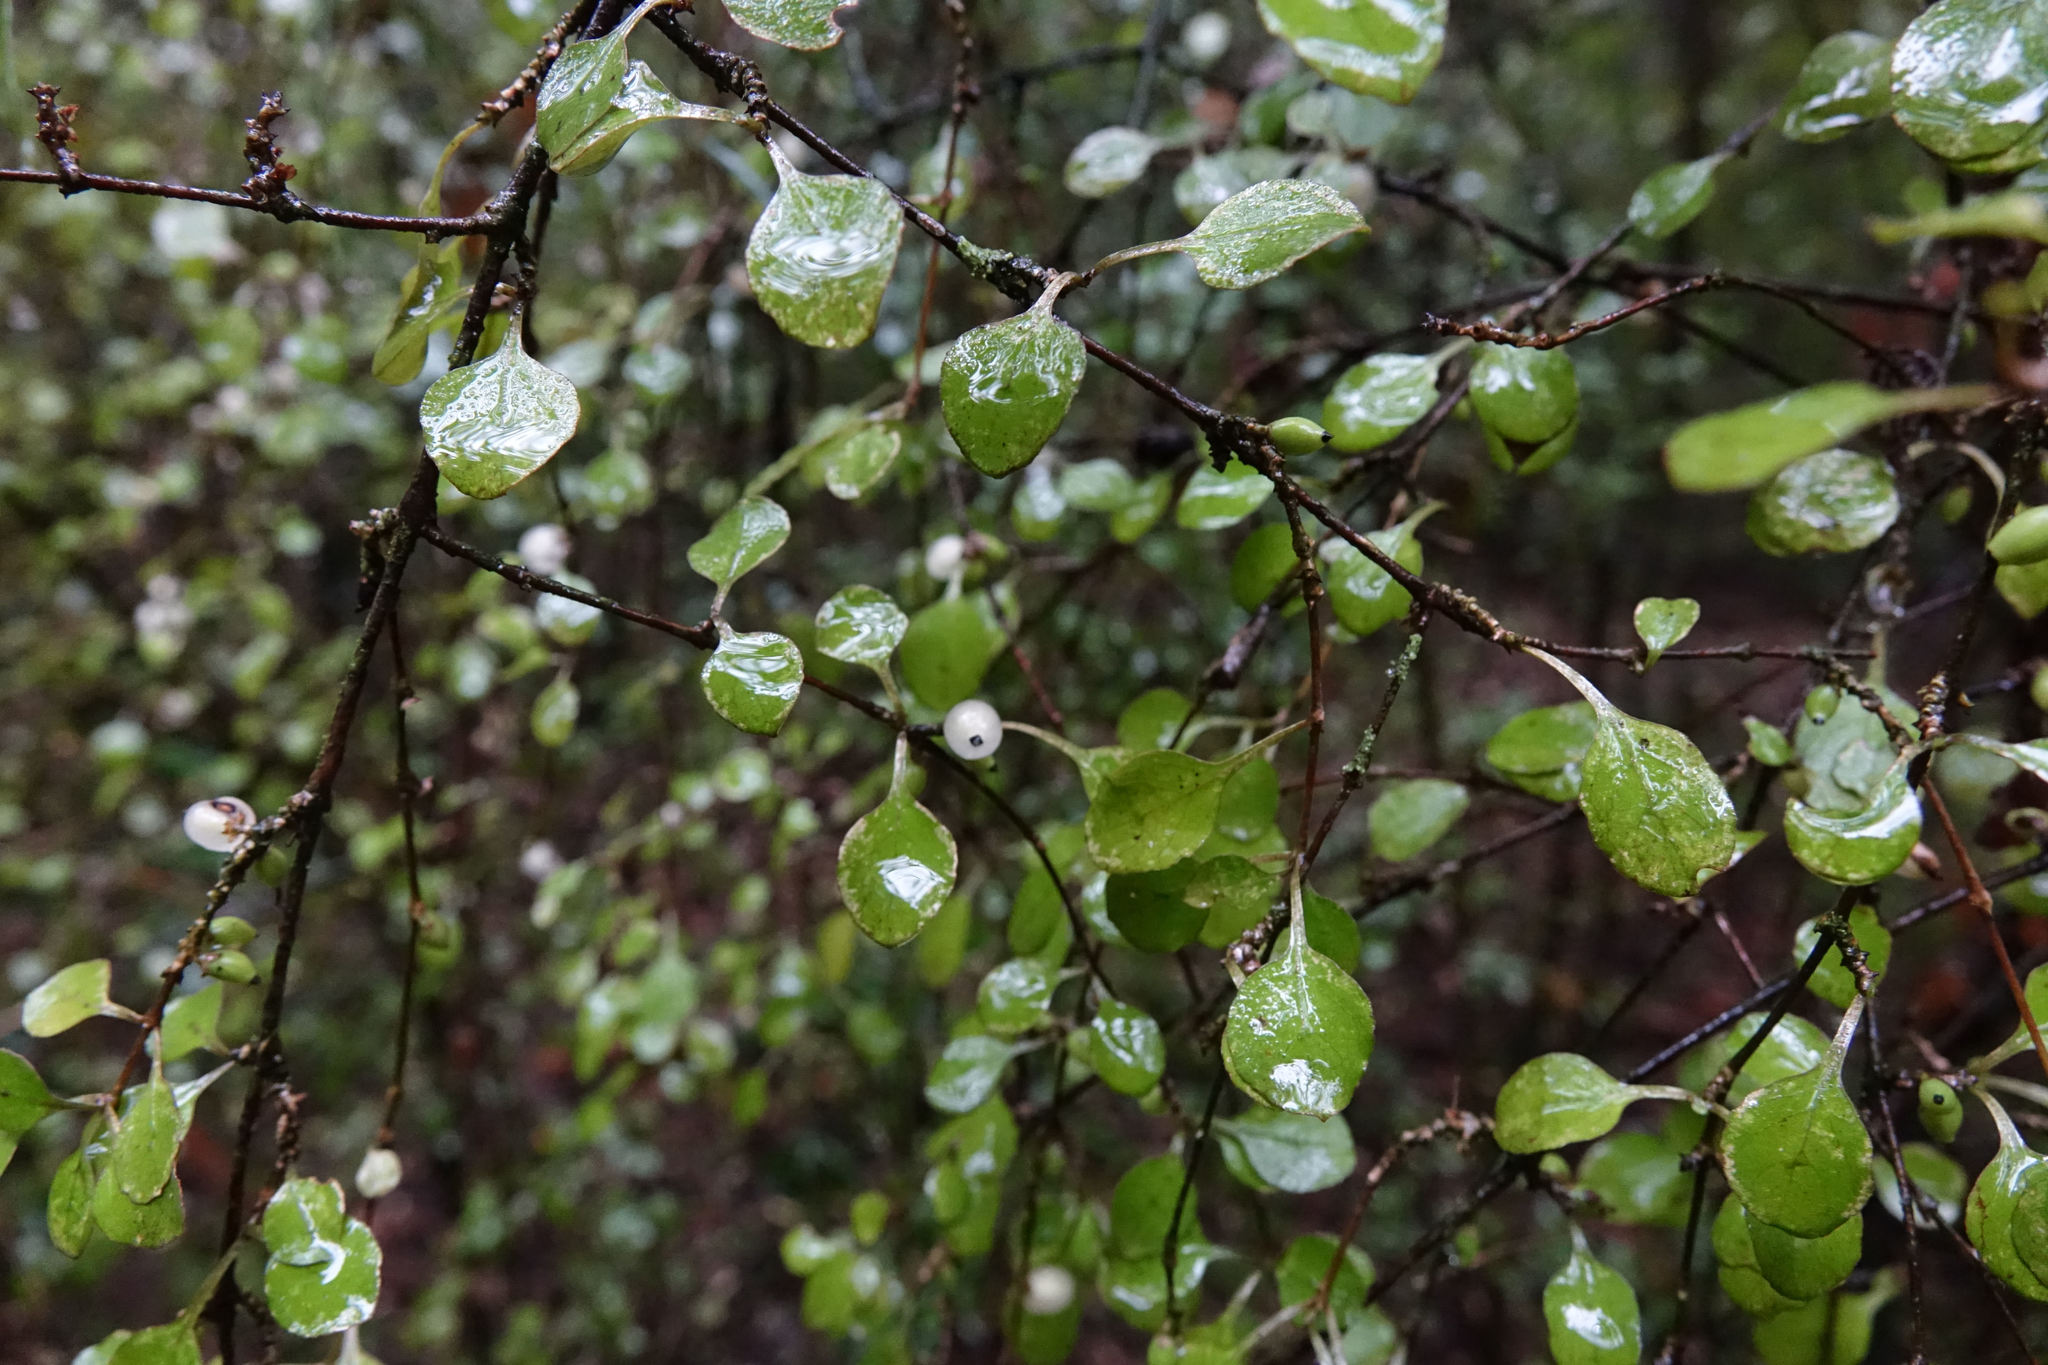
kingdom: Plantae
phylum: Tracheophyta
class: Magnoliopsida
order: Gentianales
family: Rubiaceae
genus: Coprosma
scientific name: Coprosma rubra
